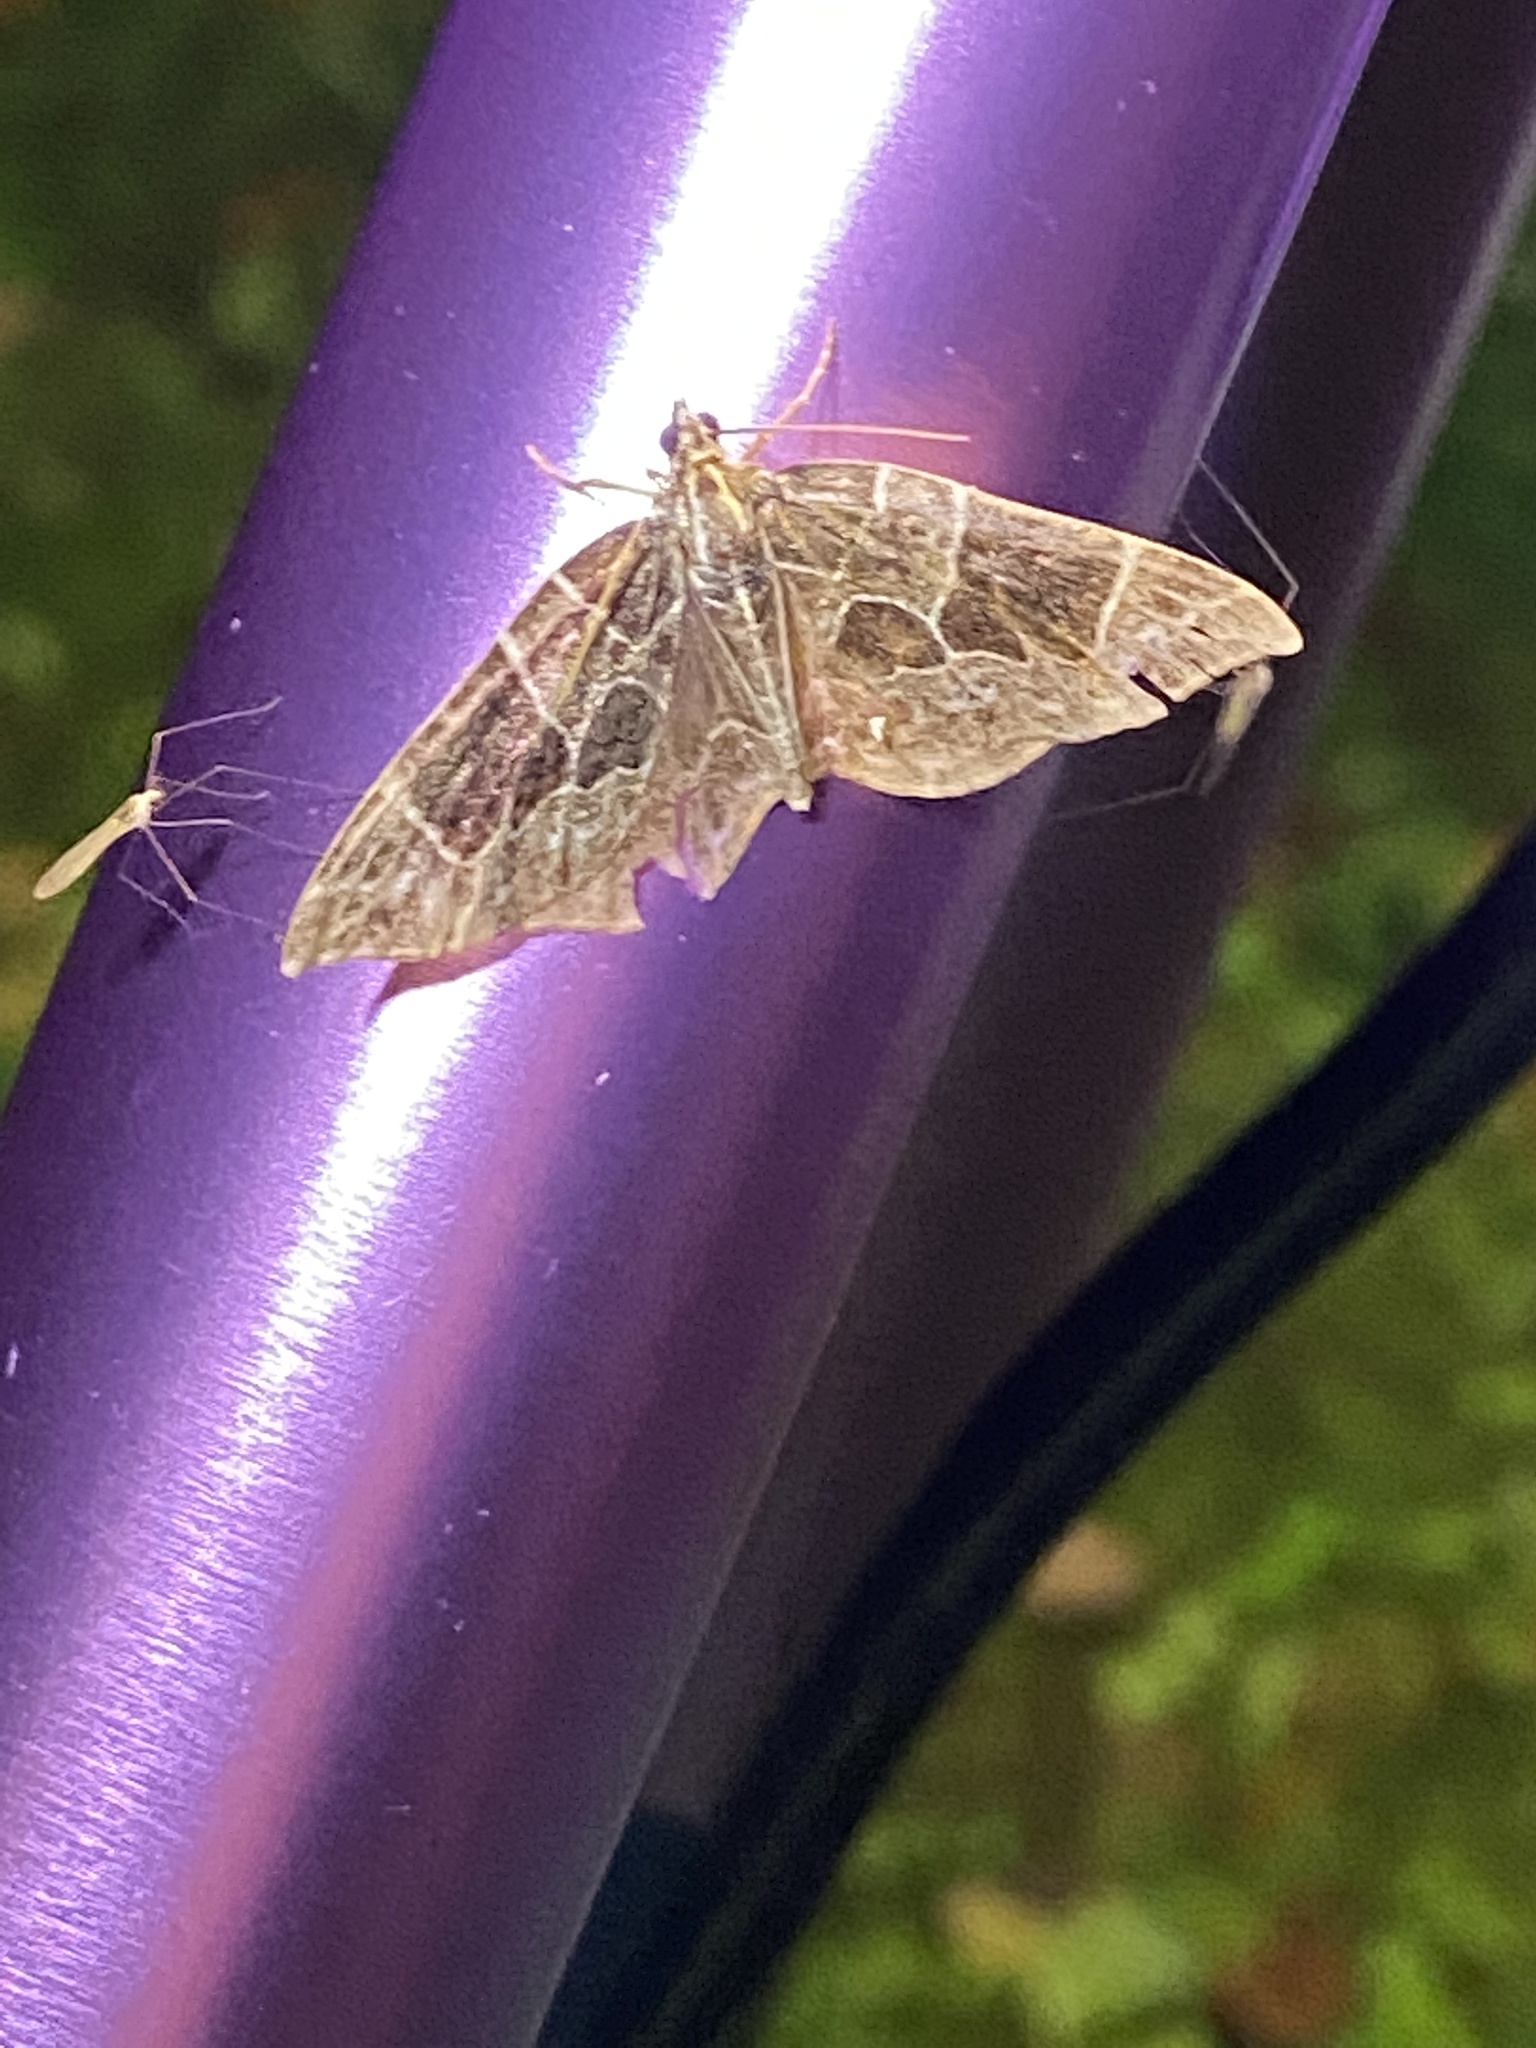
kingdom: Animalia
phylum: Arthropoda
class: Insecta
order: Lepidoptera
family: Geometridae
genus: Ecliptopera
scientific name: Ecliptopera atricolorata
